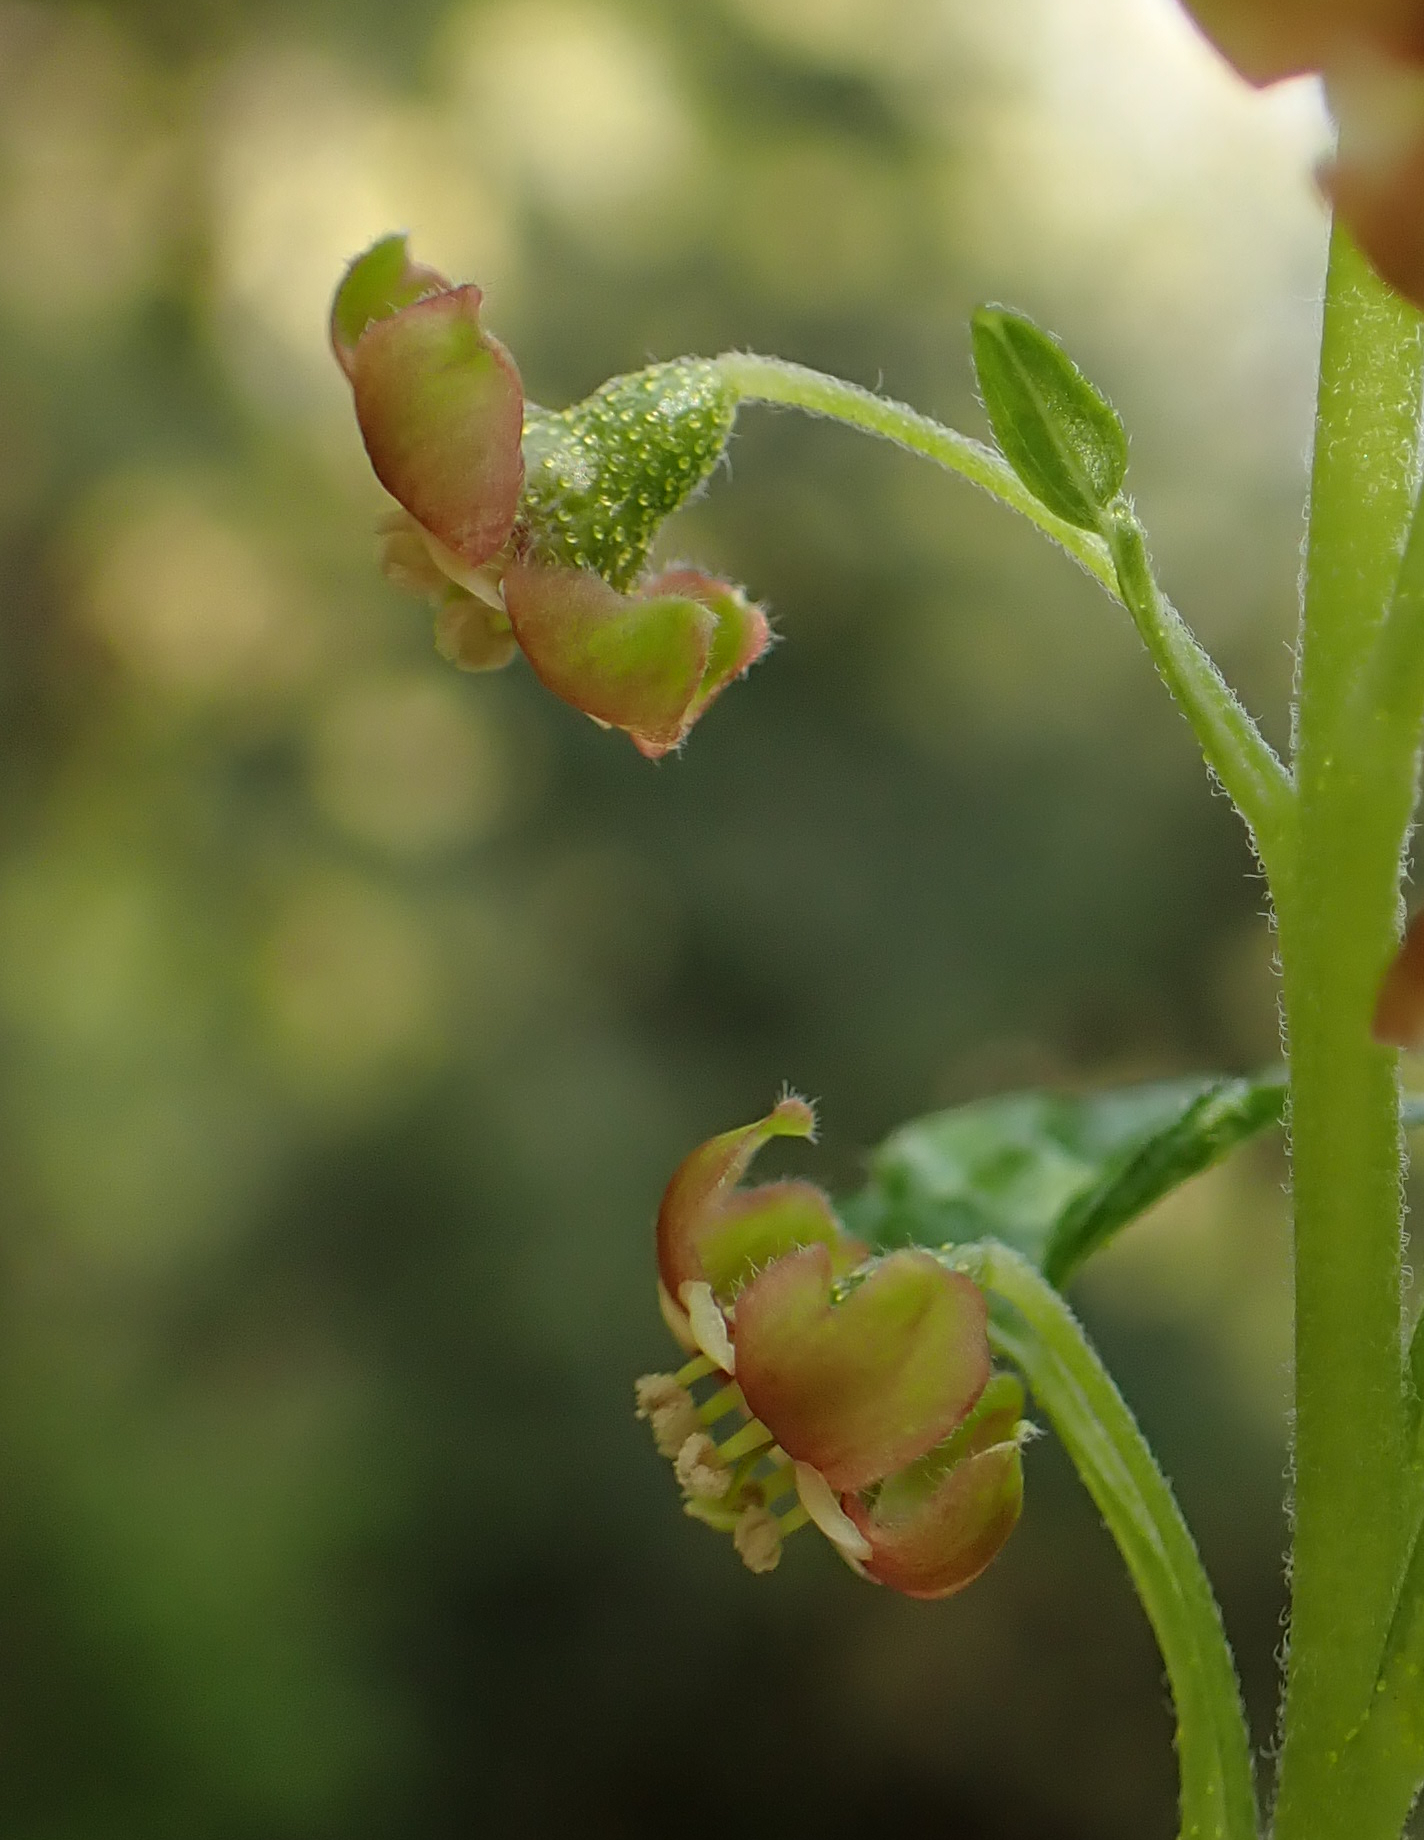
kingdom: Plantae
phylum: Tracheophyta
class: Magnoliopsida
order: Saxifragales
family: Grossulariaceae
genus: Ribes
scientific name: Ribes bracteosum
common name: California black currant
